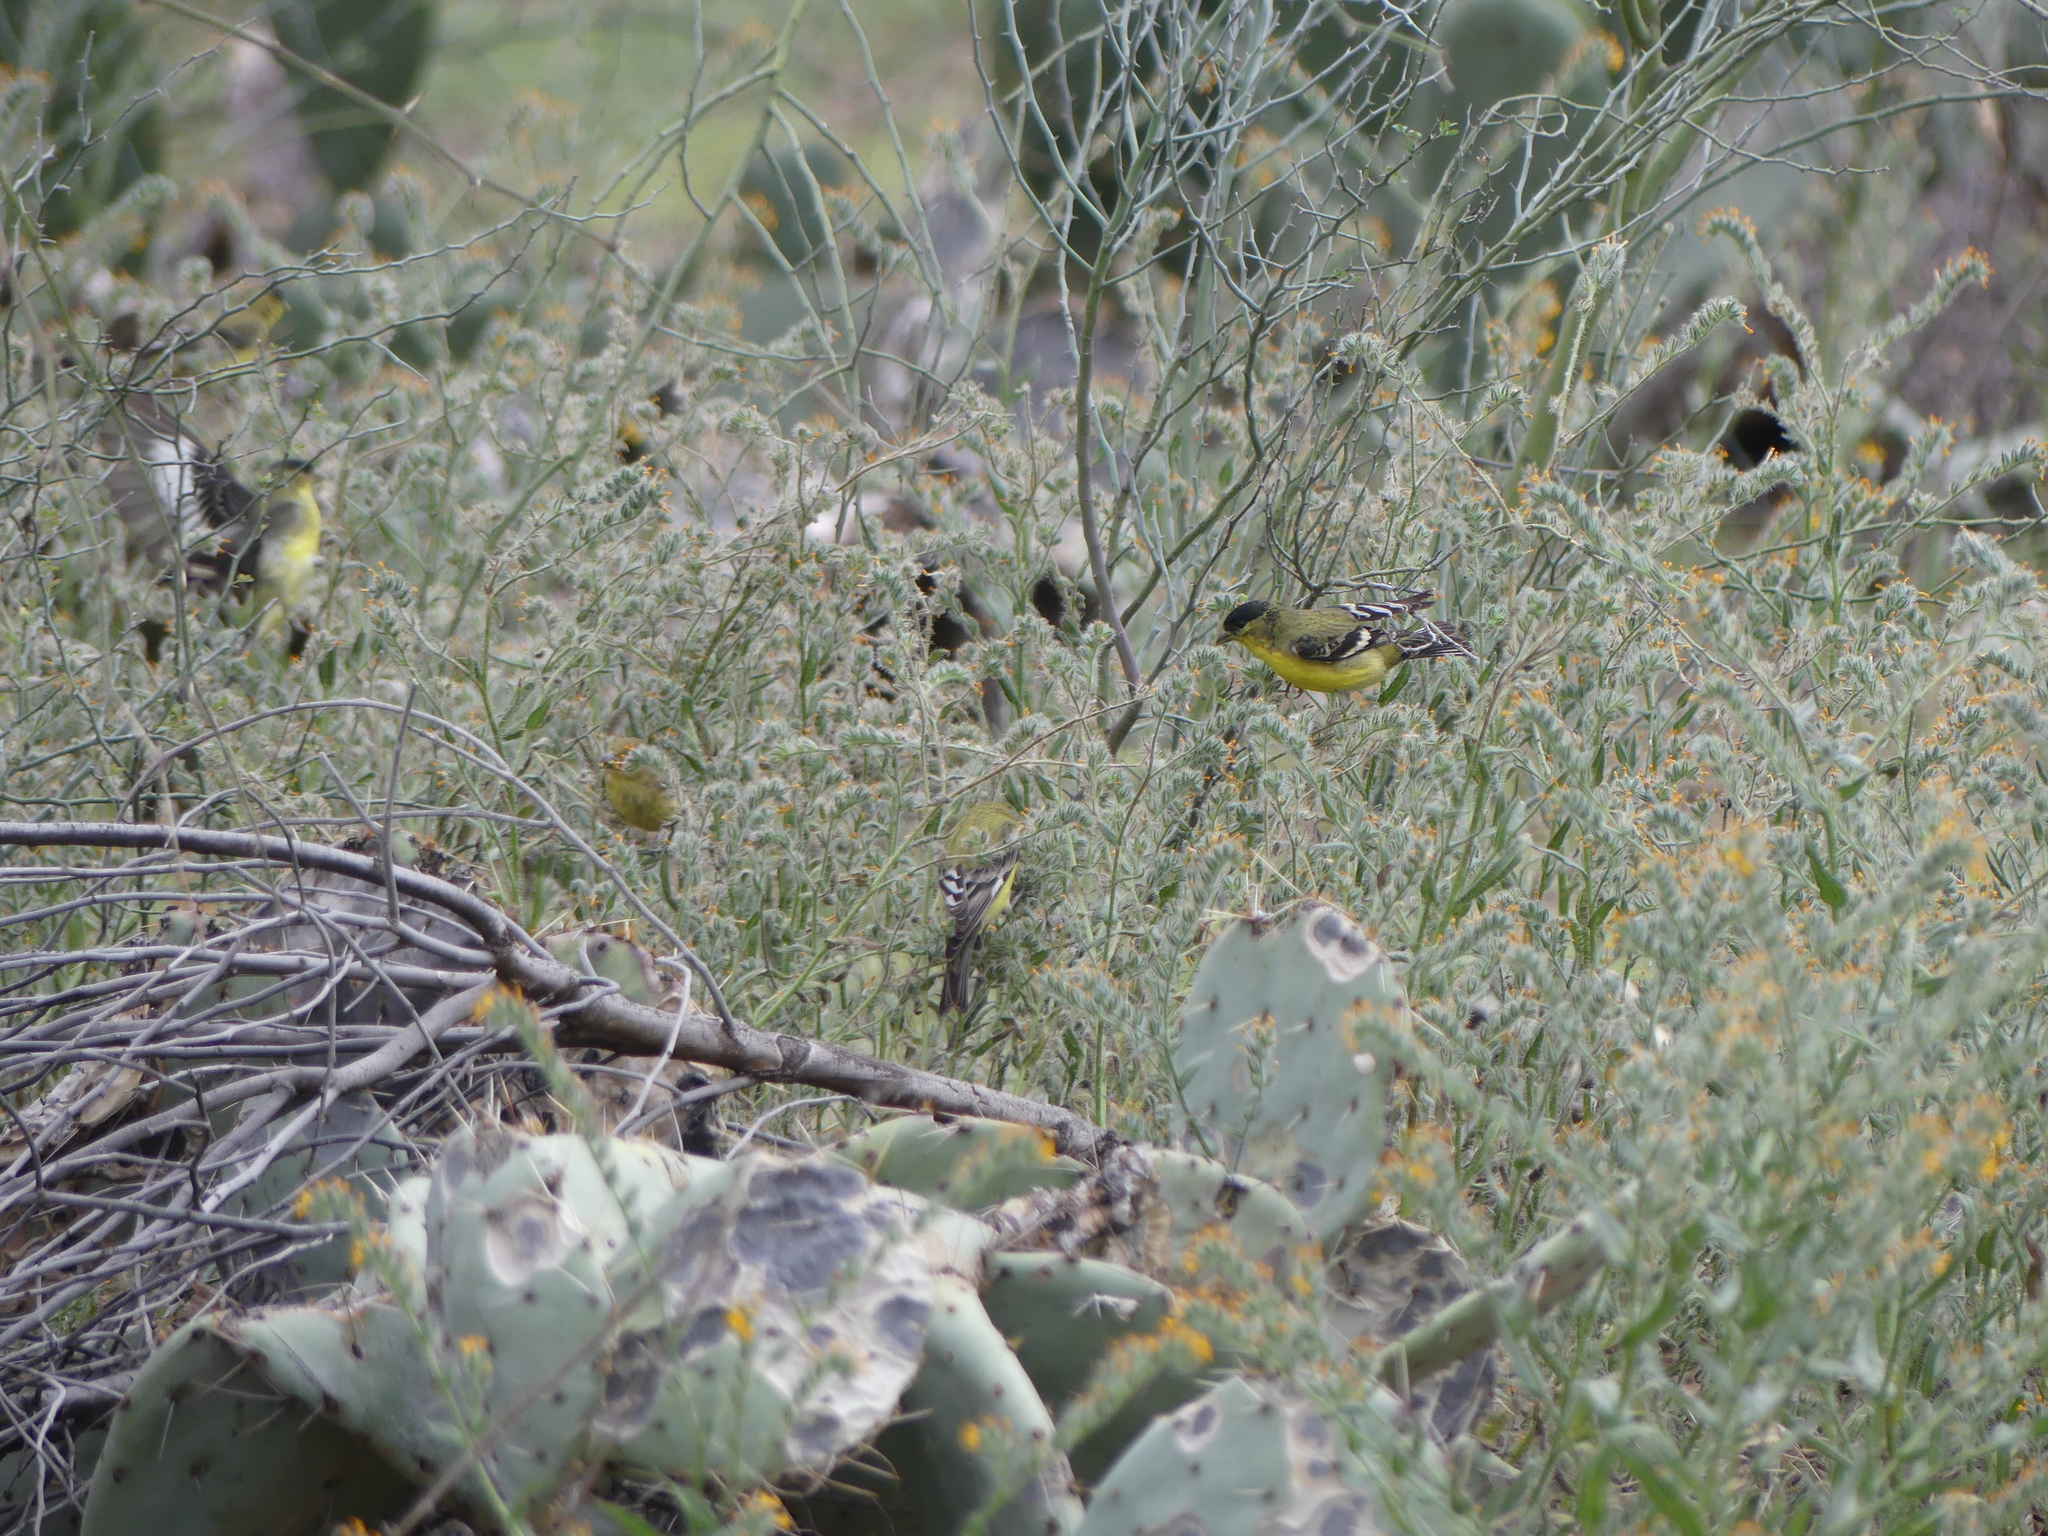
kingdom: Animalia
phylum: Chordata
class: Aves
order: Passeriformes
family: Fringillidae
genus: Spinus
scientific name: Spinus psaltria
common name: Lesser goldfinch
